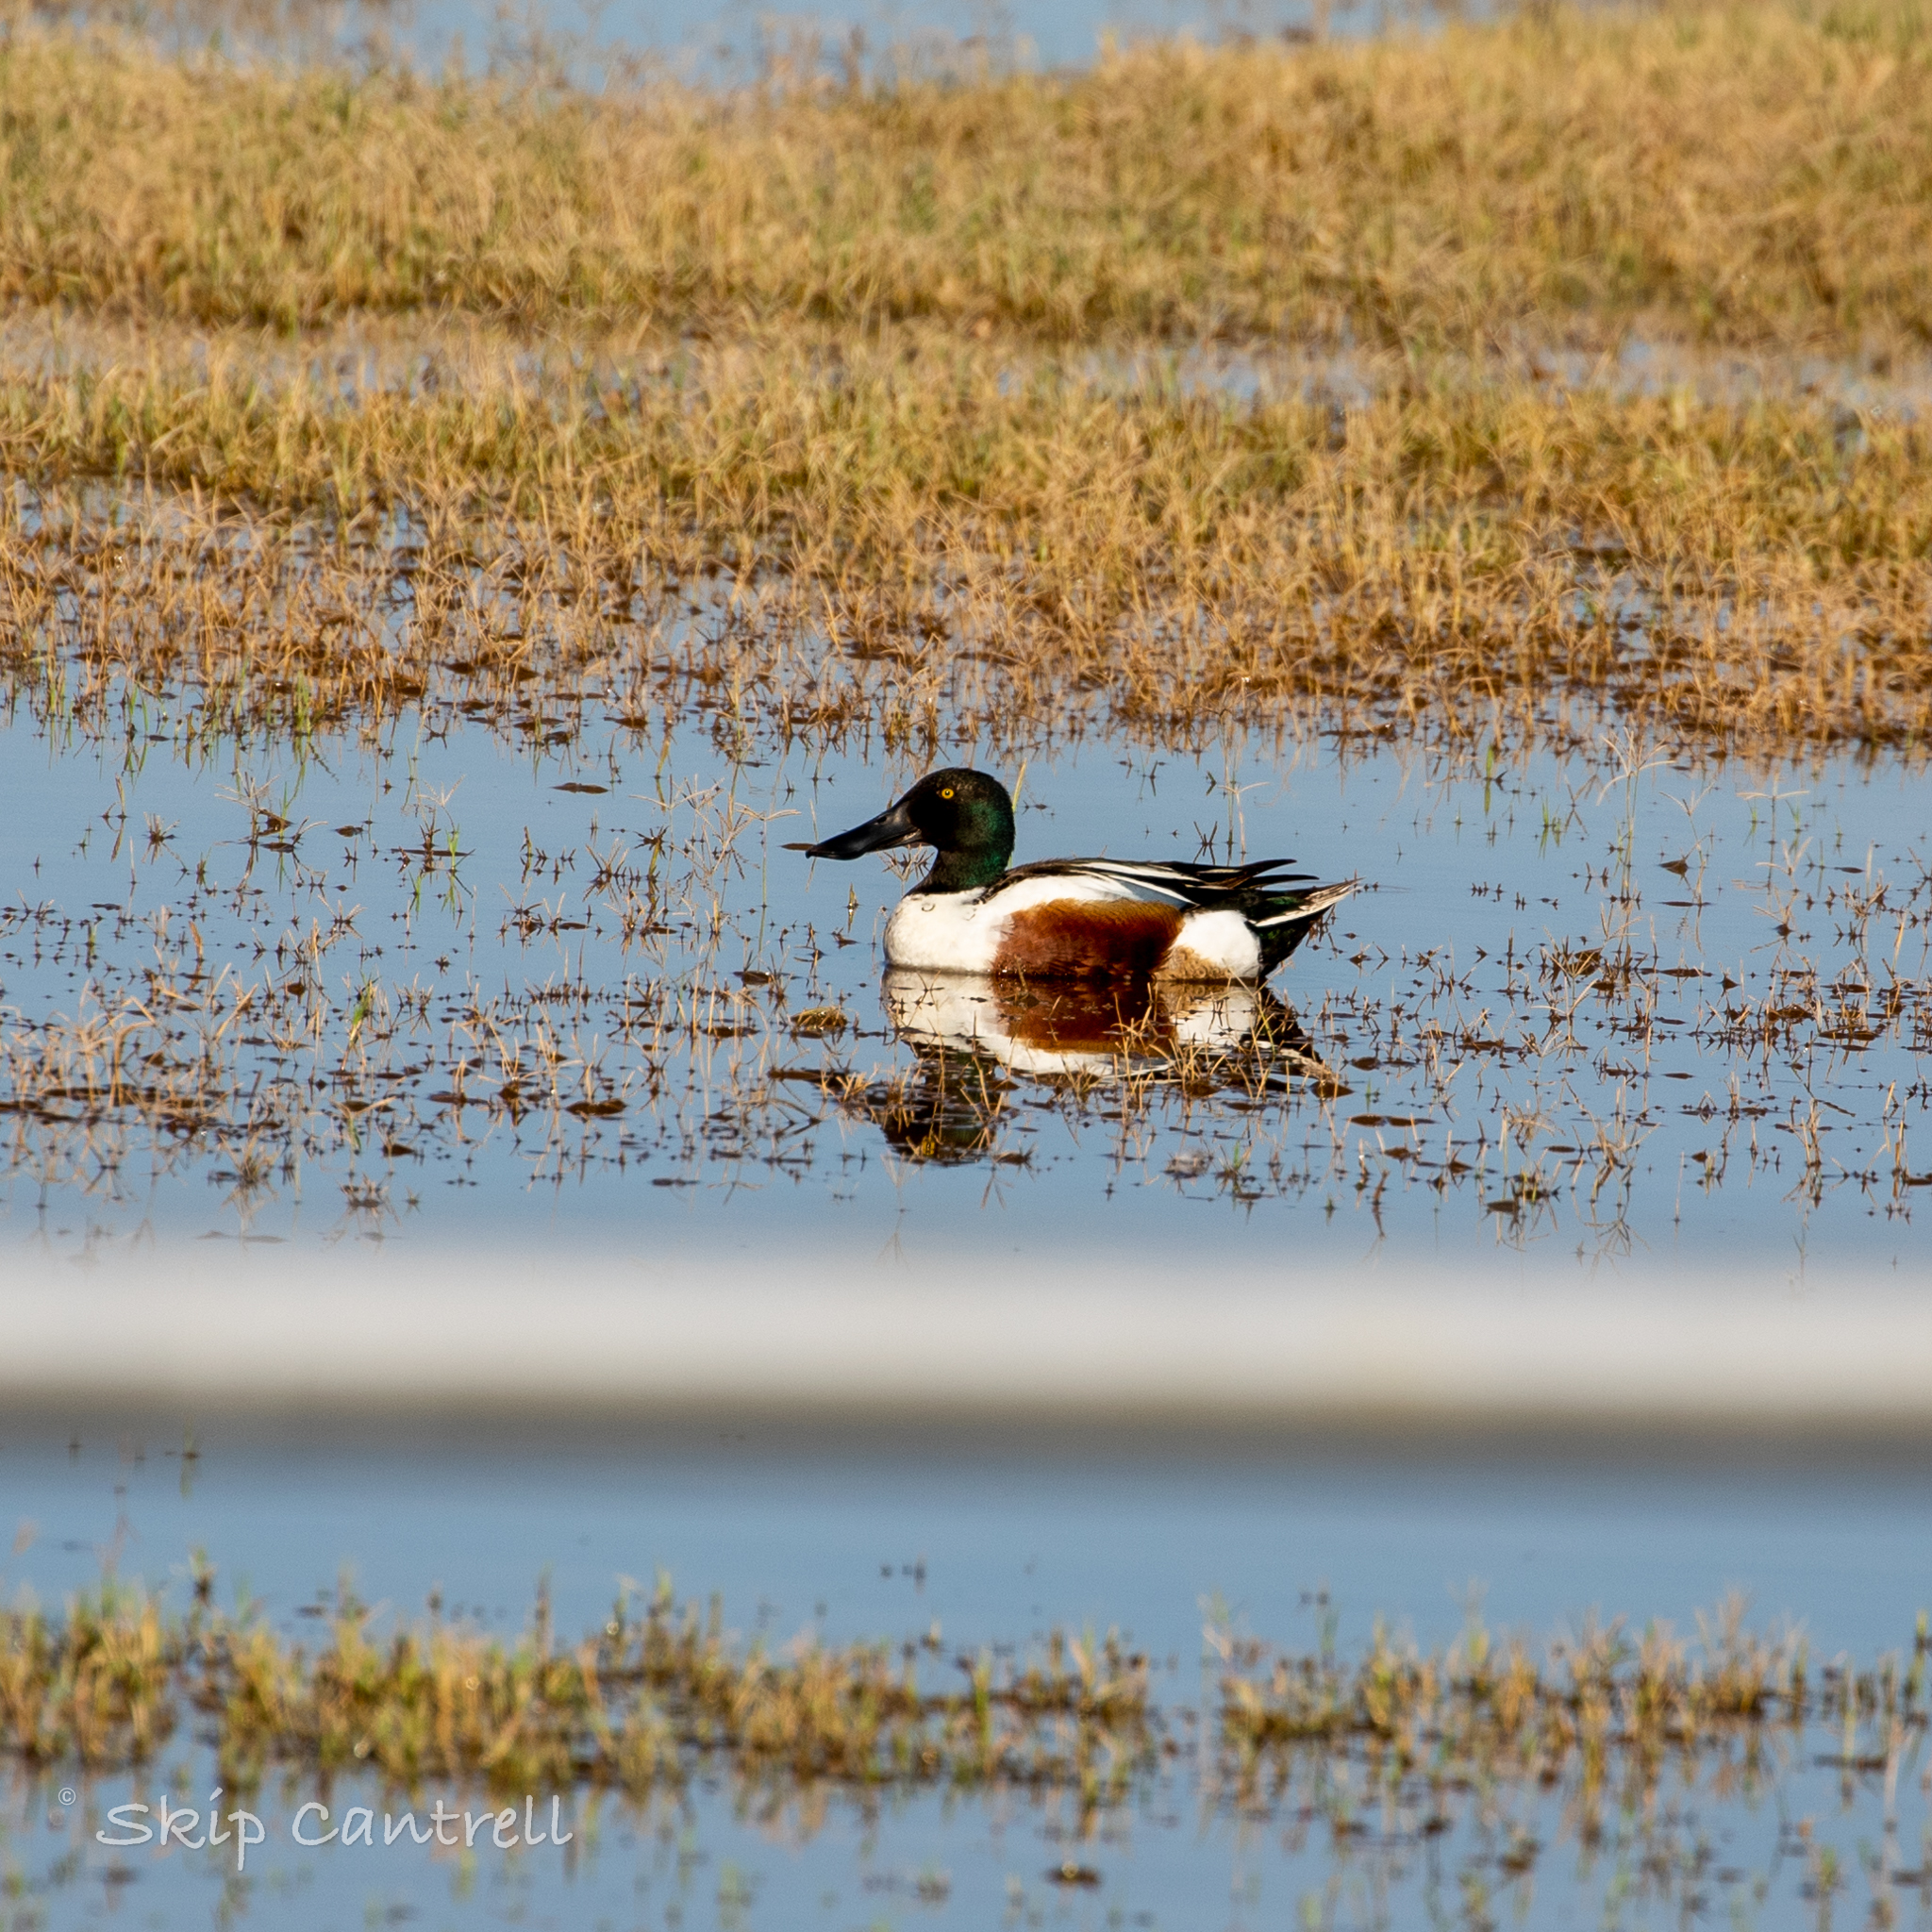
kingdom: Animalia
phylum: Chordata
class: Aves
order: Anseriformes
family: Anatidae
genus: Spatula
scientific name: Spatula clypeata
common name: Northern shoveler
